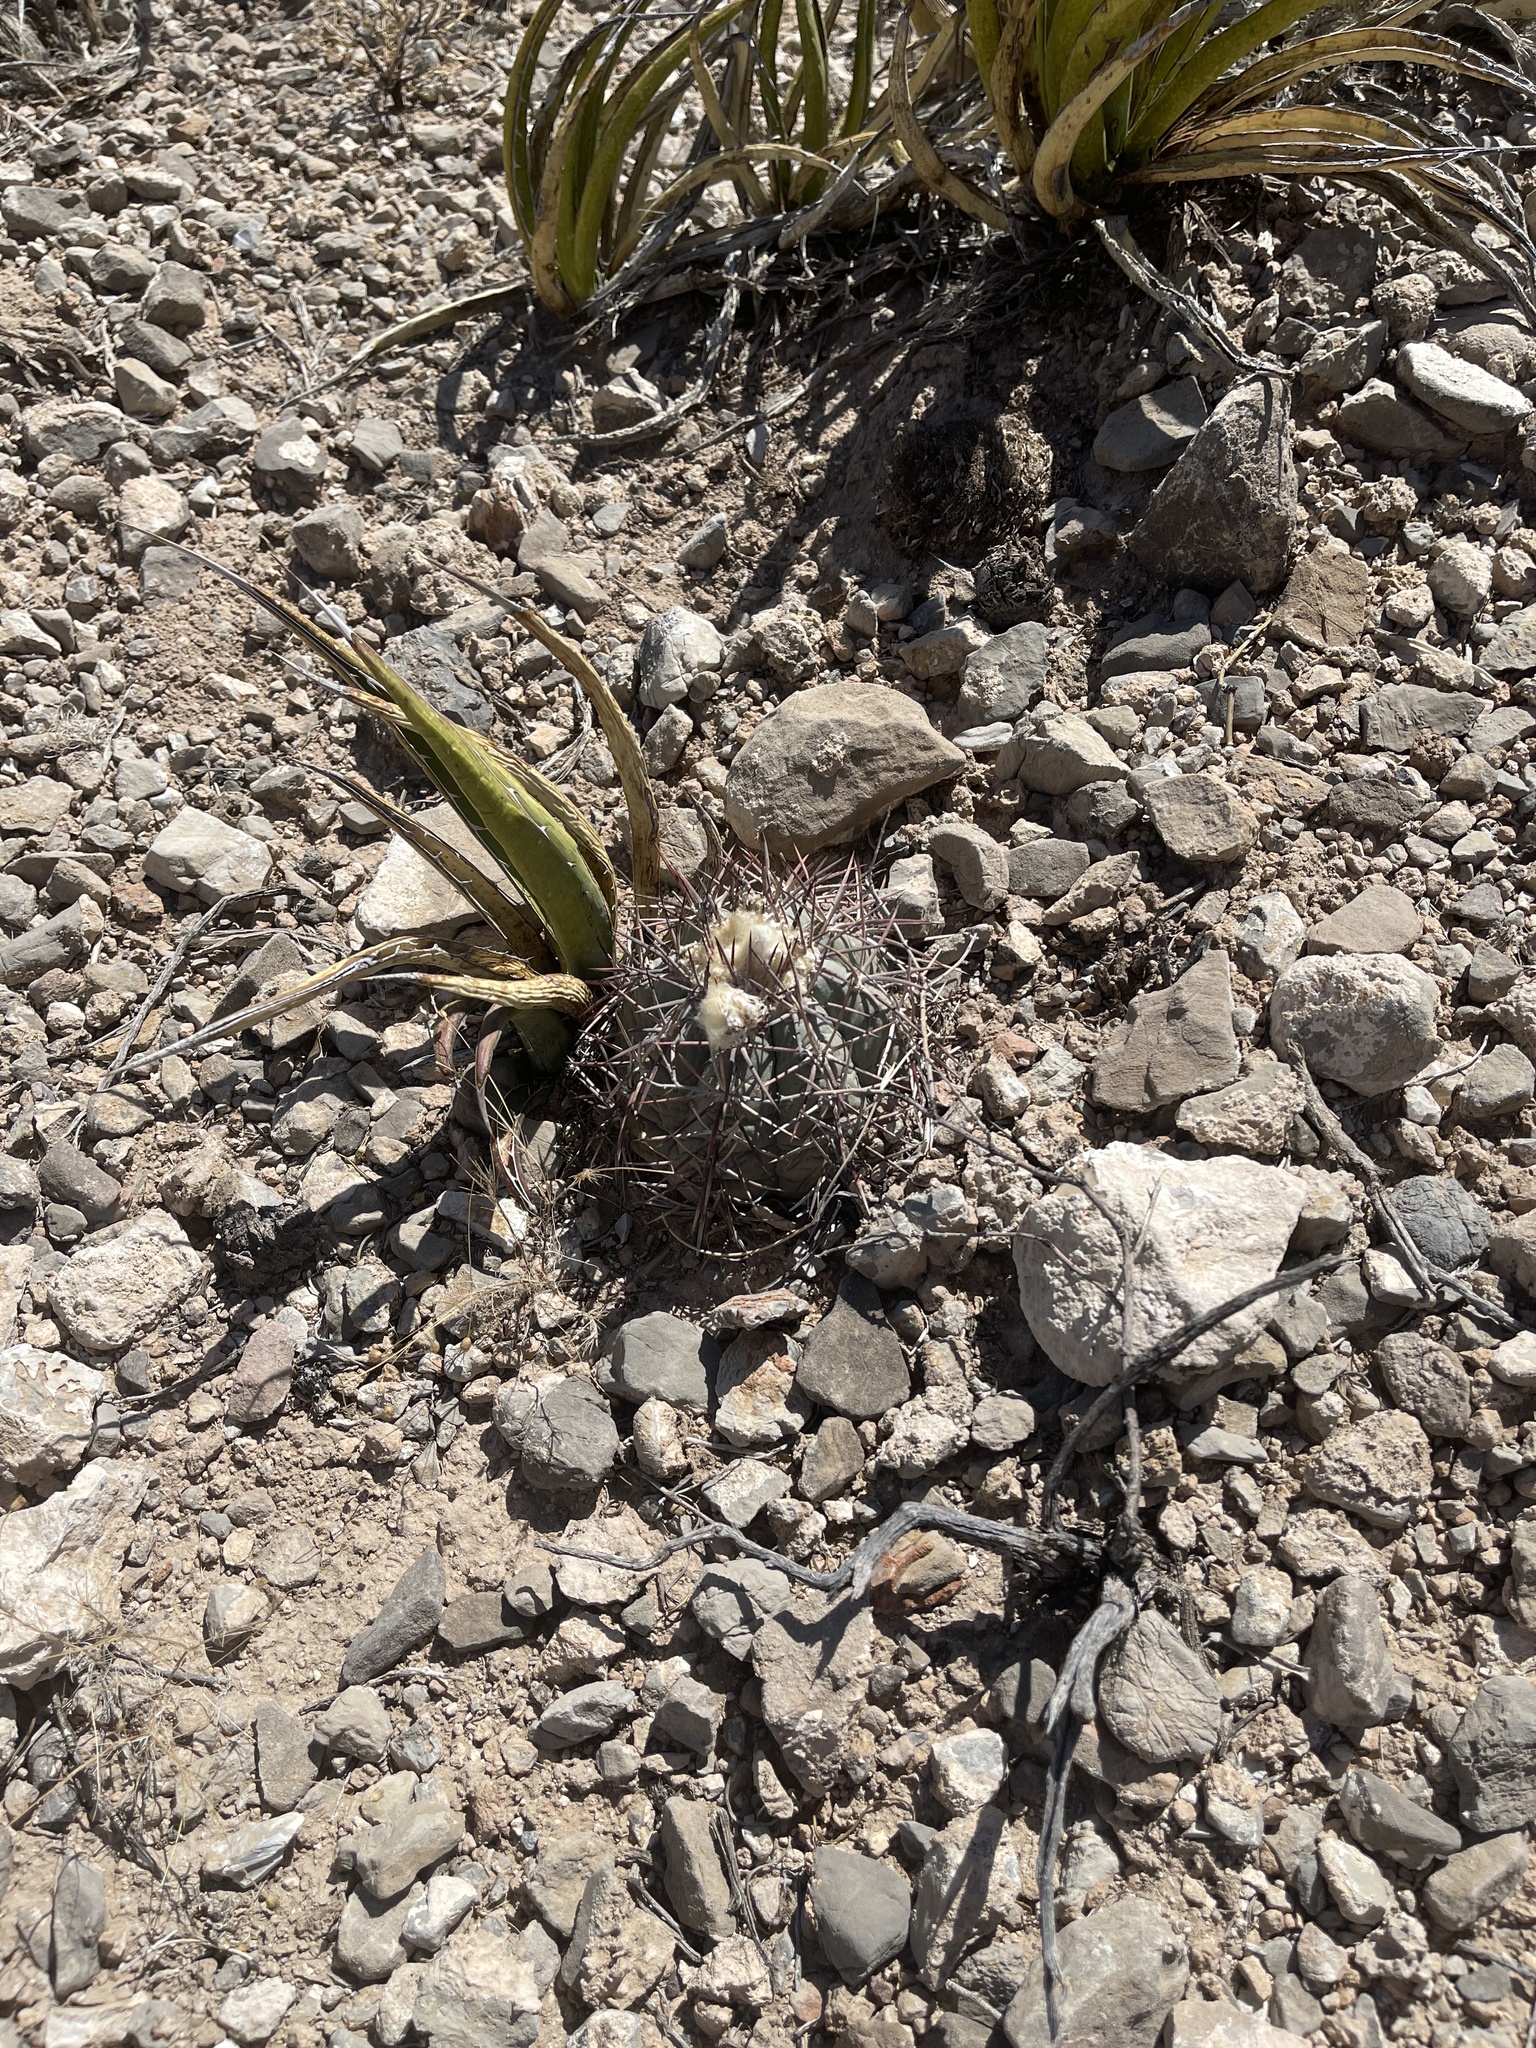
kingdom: Plantae
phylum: Tracheophyta
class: Magnoliopsida
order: Caryophyllales
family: Cactaceae
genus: Echinocactus
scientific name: Echinocactus horizonthalonius
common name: Devilshead
